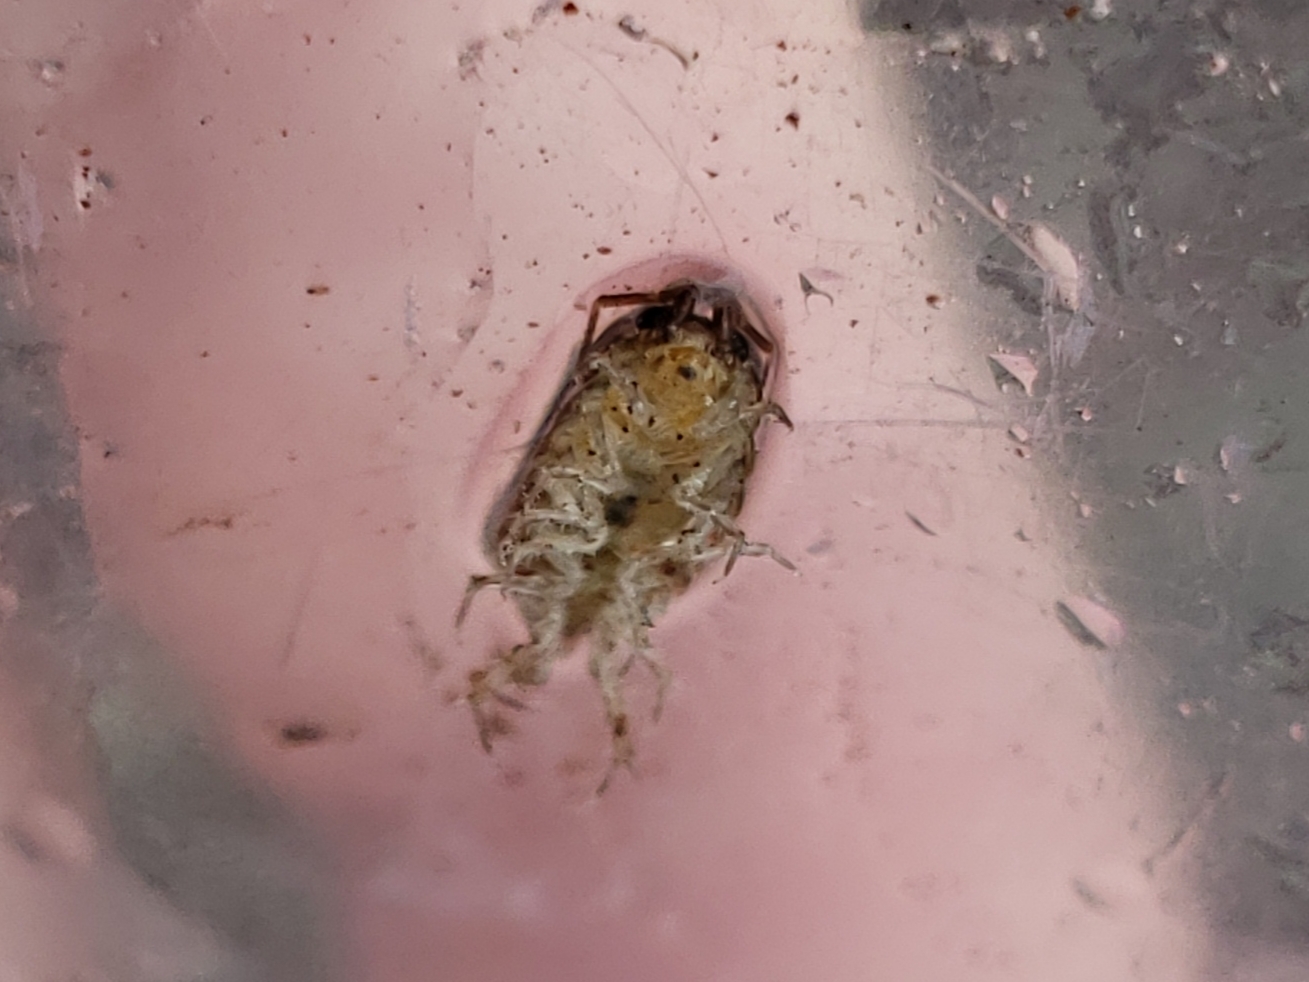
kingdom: Animalia
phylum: Arthropoda
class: Malacostraca
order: Isopoda
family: Philosciidae
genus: Atlantoscia
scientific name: Atlantoscia floridana
